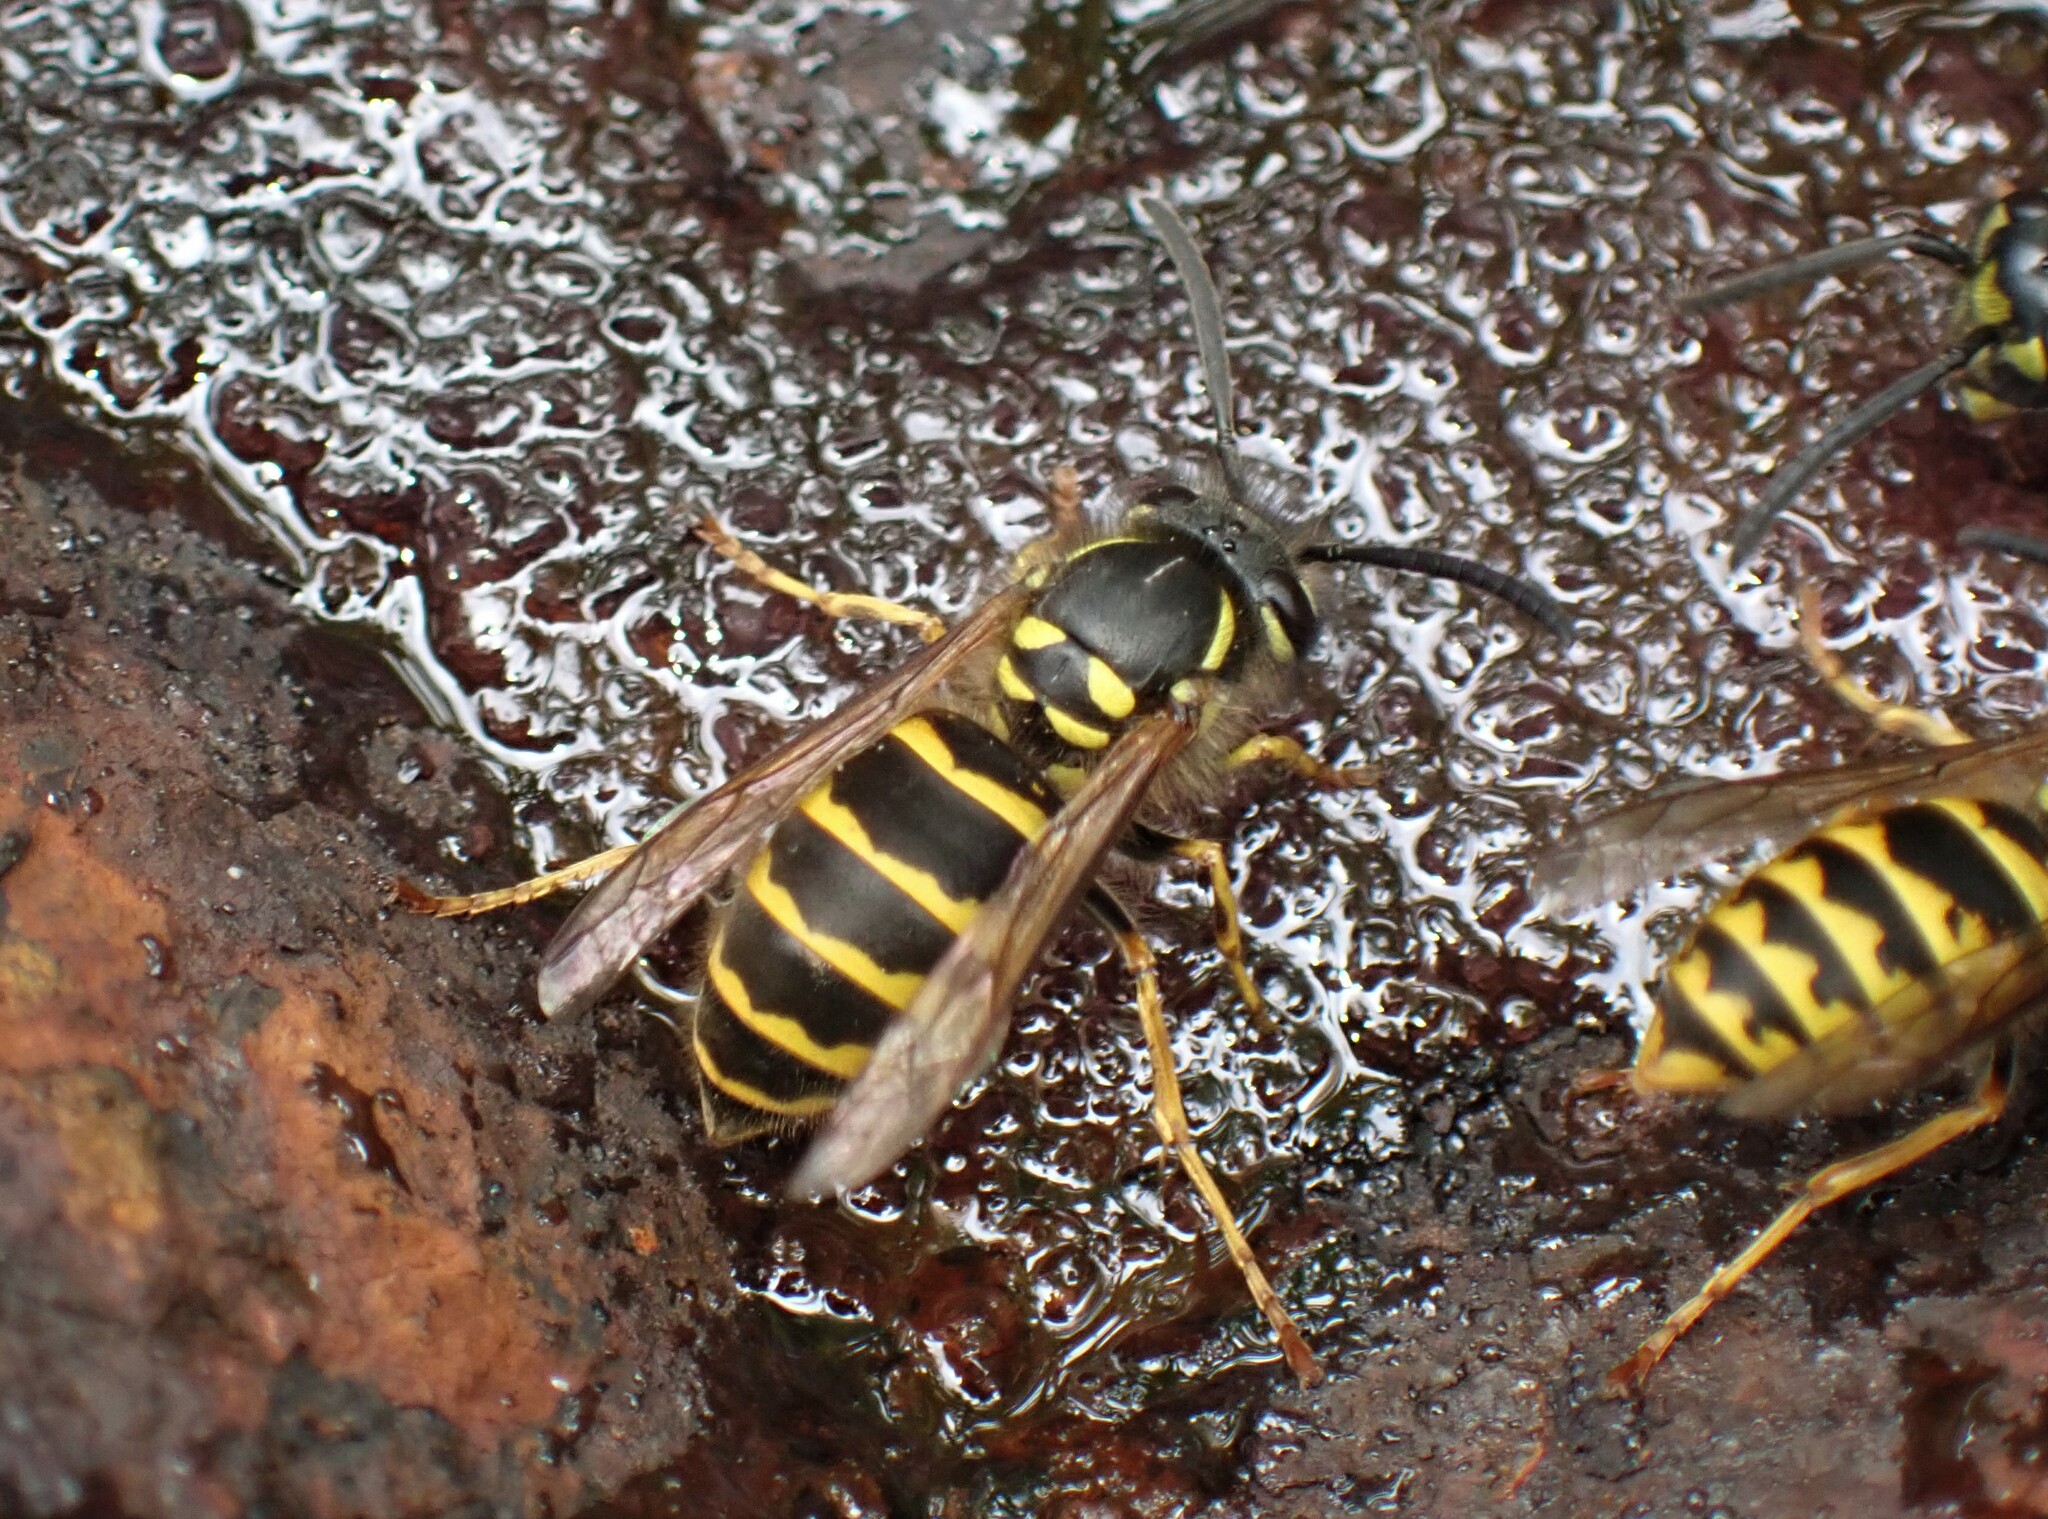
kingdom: Animalia
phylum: Arthropoda
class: Insecta
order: Hymenoptera
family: Vespidae
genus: Vespula
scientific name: Vespula vulgaris
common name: Common wasp
